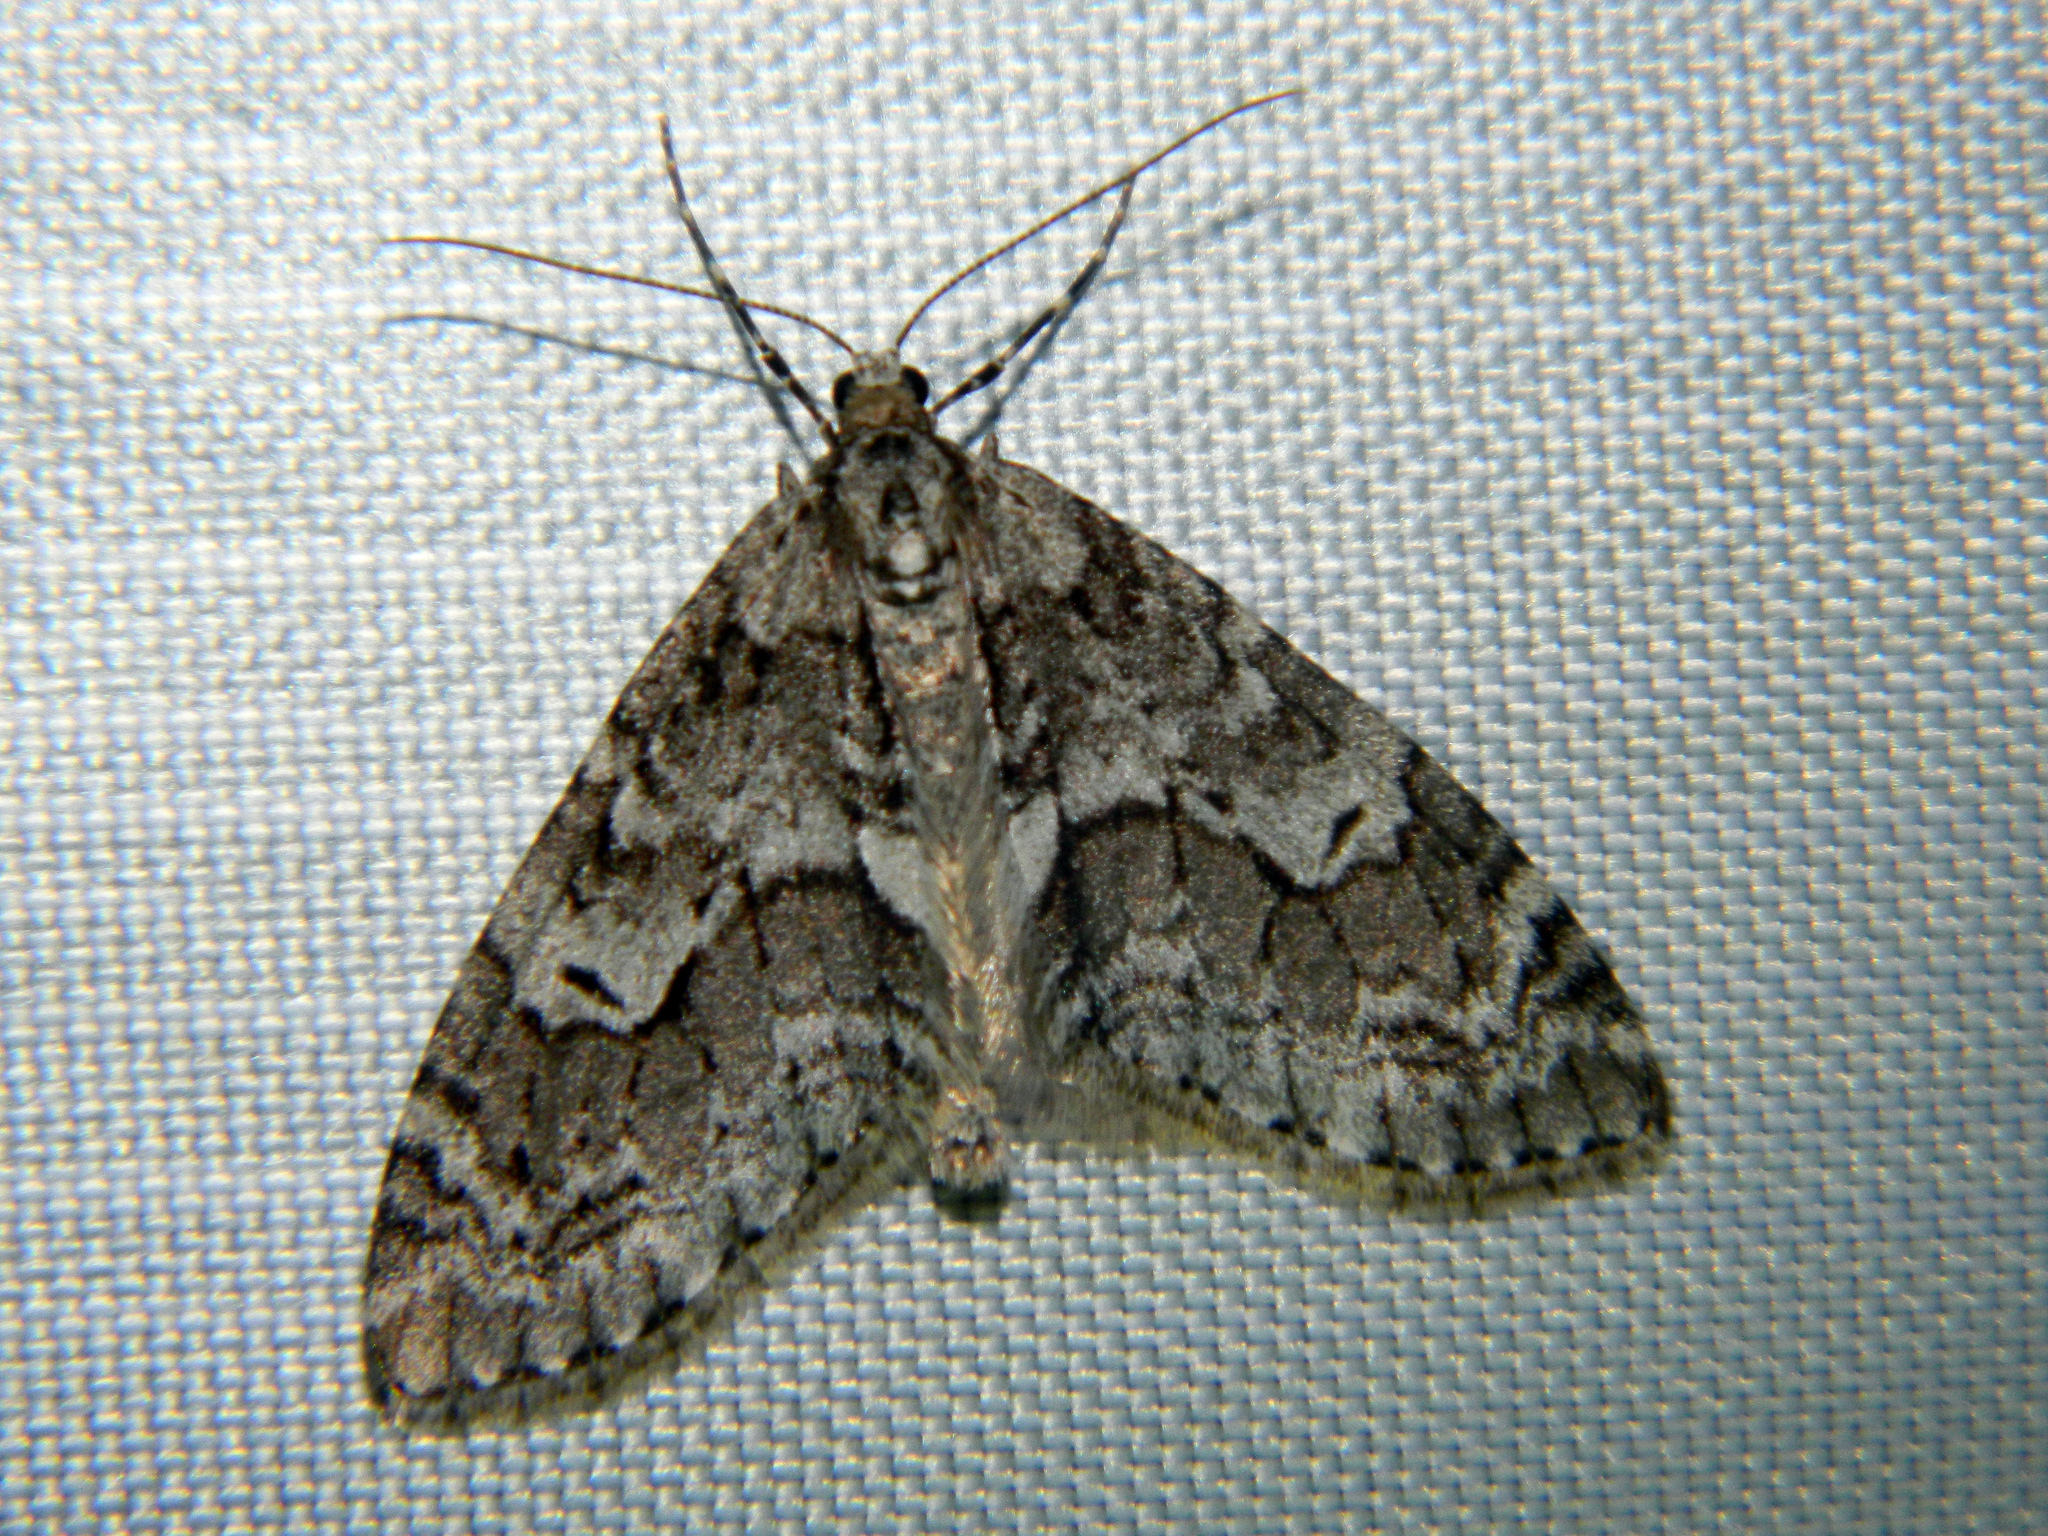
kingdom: Animalia
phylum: Arthropoda
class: Insecta
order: Lepidoptera
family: Geometridae
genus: Cladara
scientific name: Cladara limitaria
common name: Mottled gray carpet
